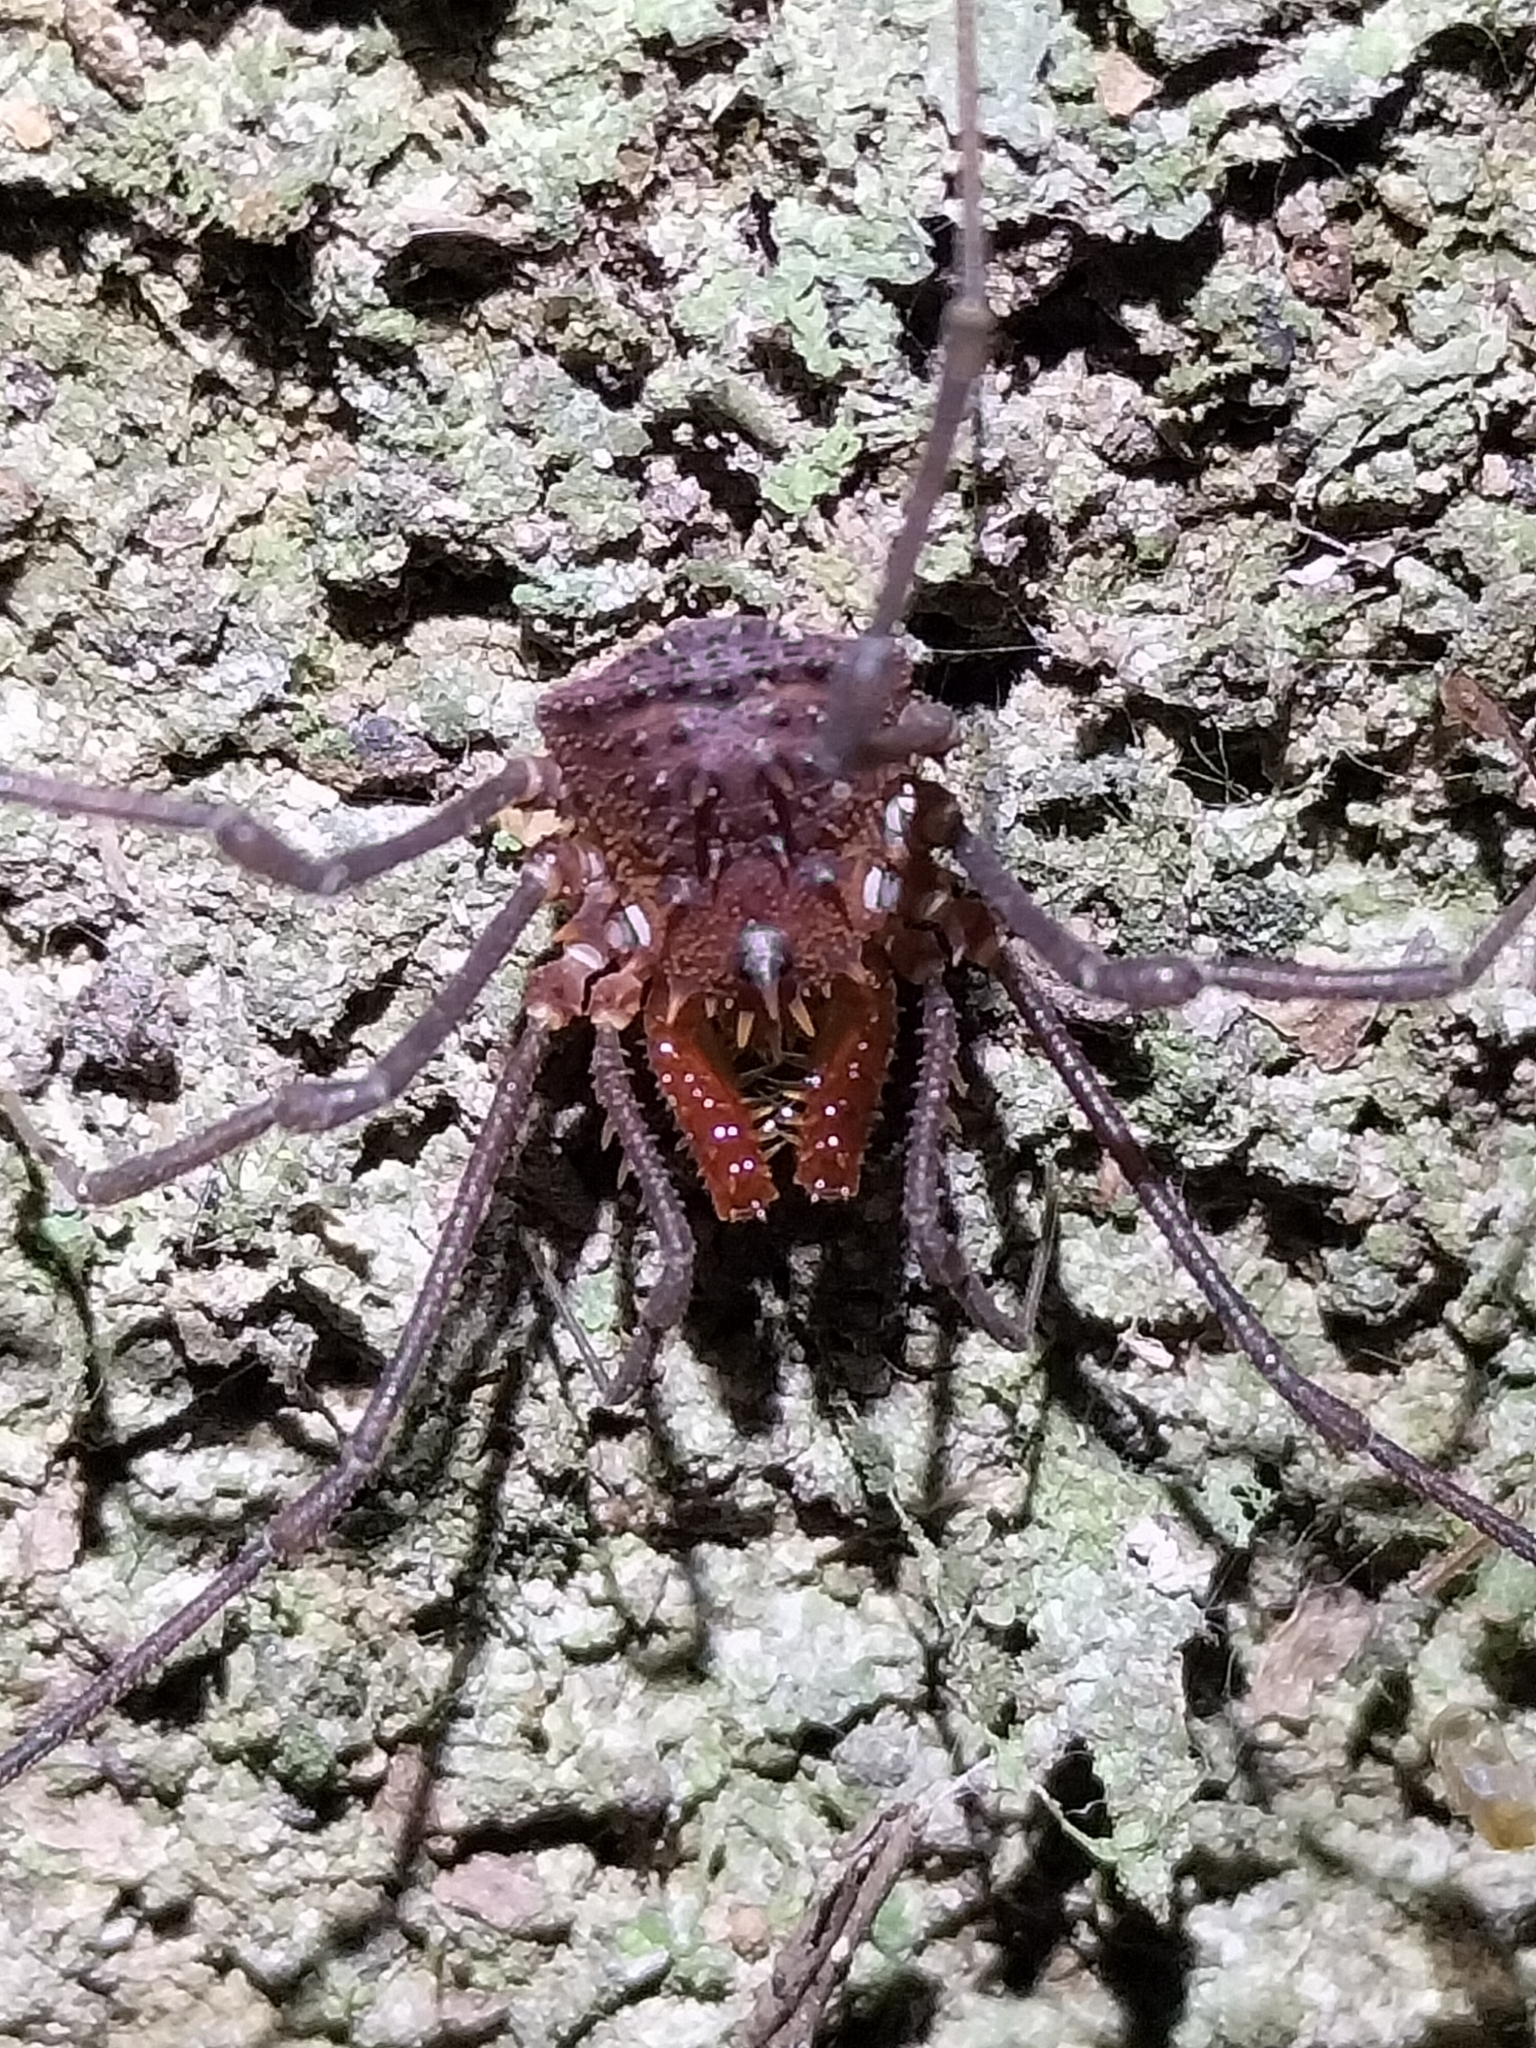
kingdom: Animalia
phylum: Arthropoda
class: Arachnida
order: Opiliones
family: Triaenonychidae
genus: Heteronuncia
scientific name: Heteronuncia robusta
